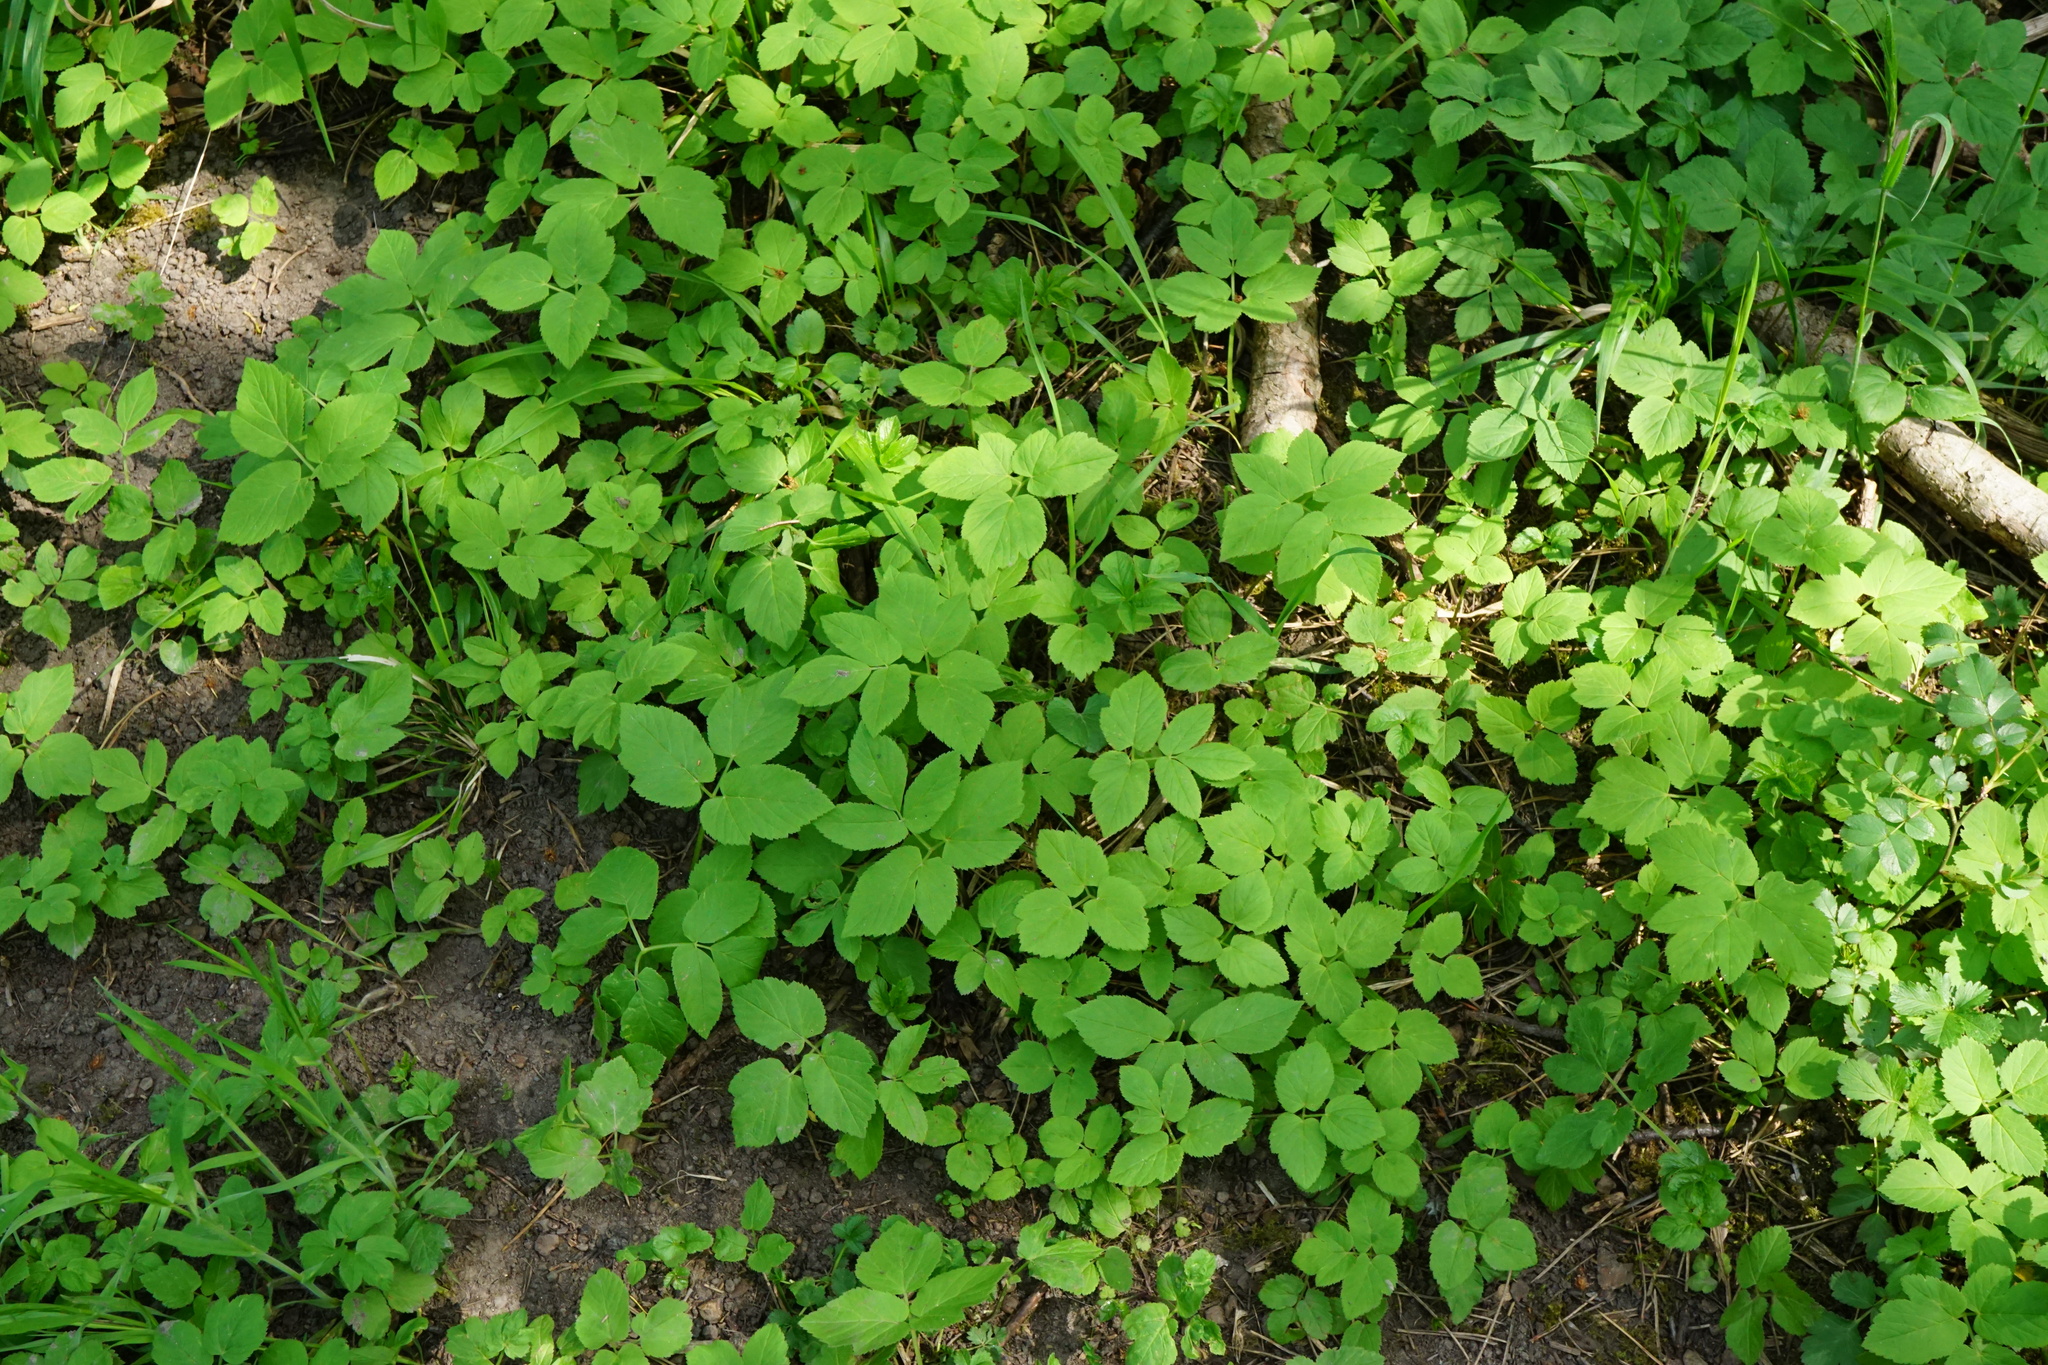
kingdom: Plantae
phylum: Tracheophyta
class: Magnoliopsida
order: Apiales
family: Apiaceae
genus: Aegopodium
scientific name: Aegopodium podagraria
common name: Ground-elder
